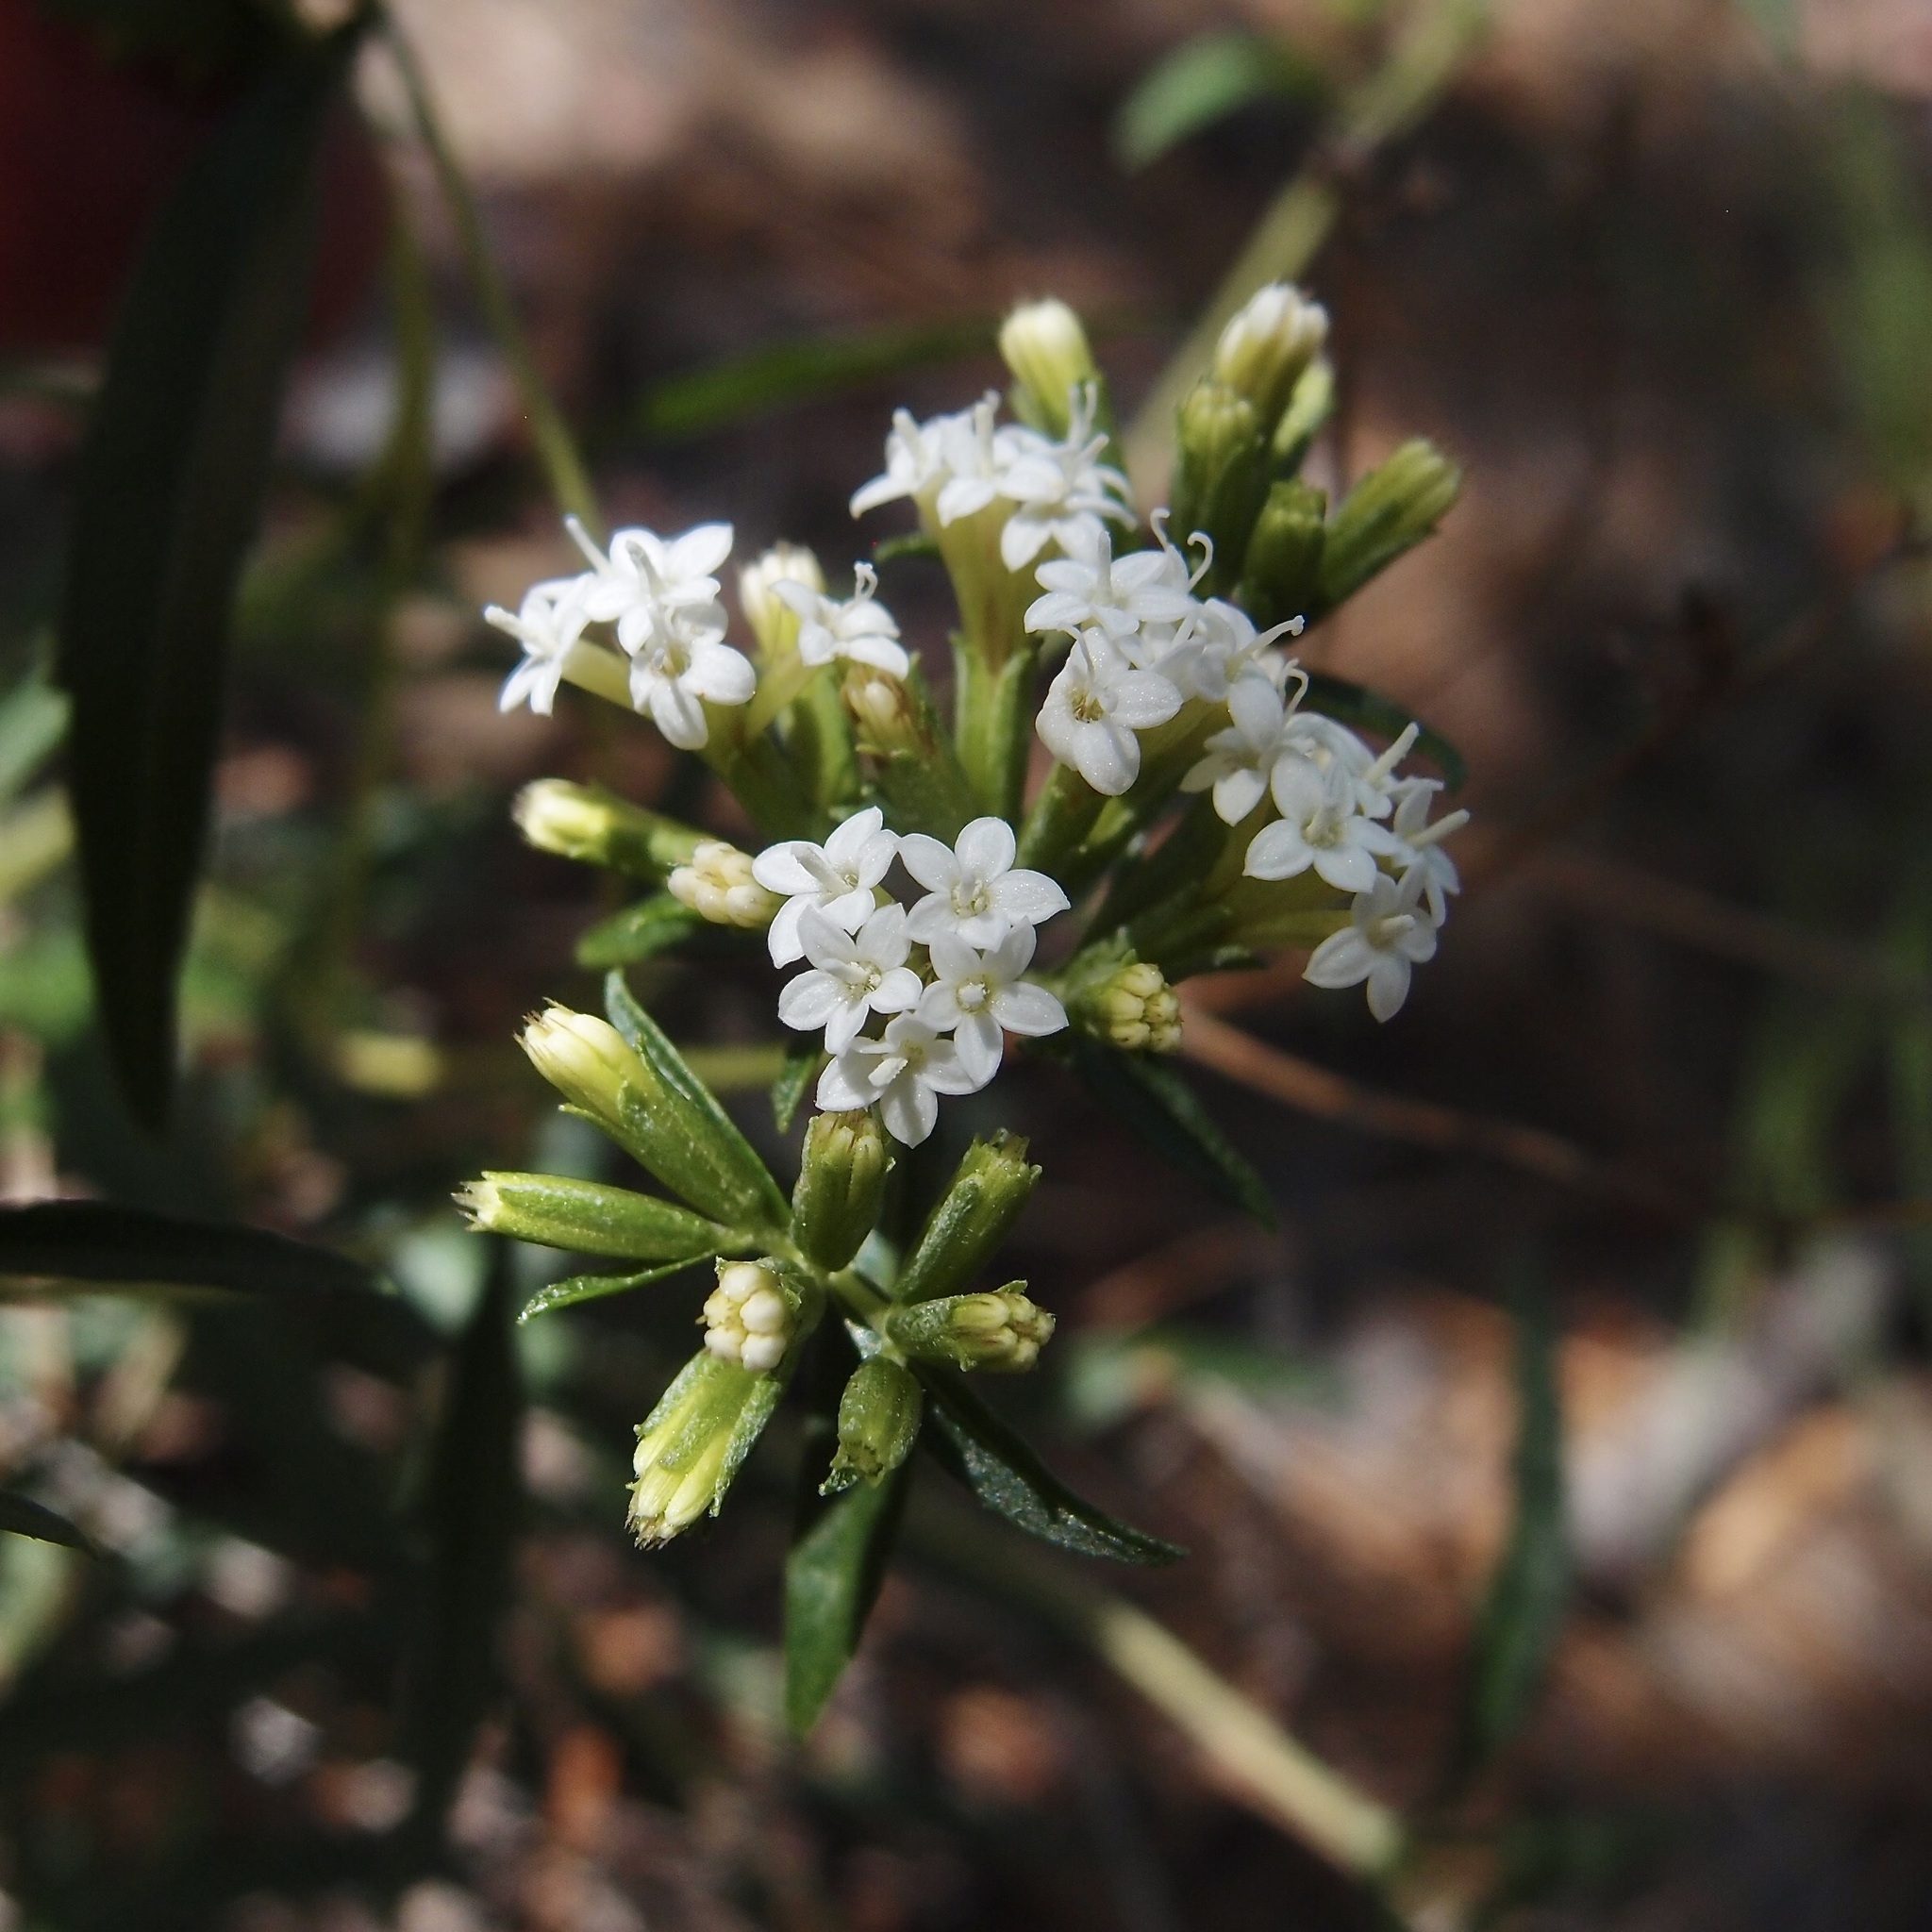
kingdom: Plantae
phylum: Tracheophyta
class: Magnoliopsida
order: Asterales
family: Asteraceae
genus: Stevia
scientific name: Stevia salicifolia
